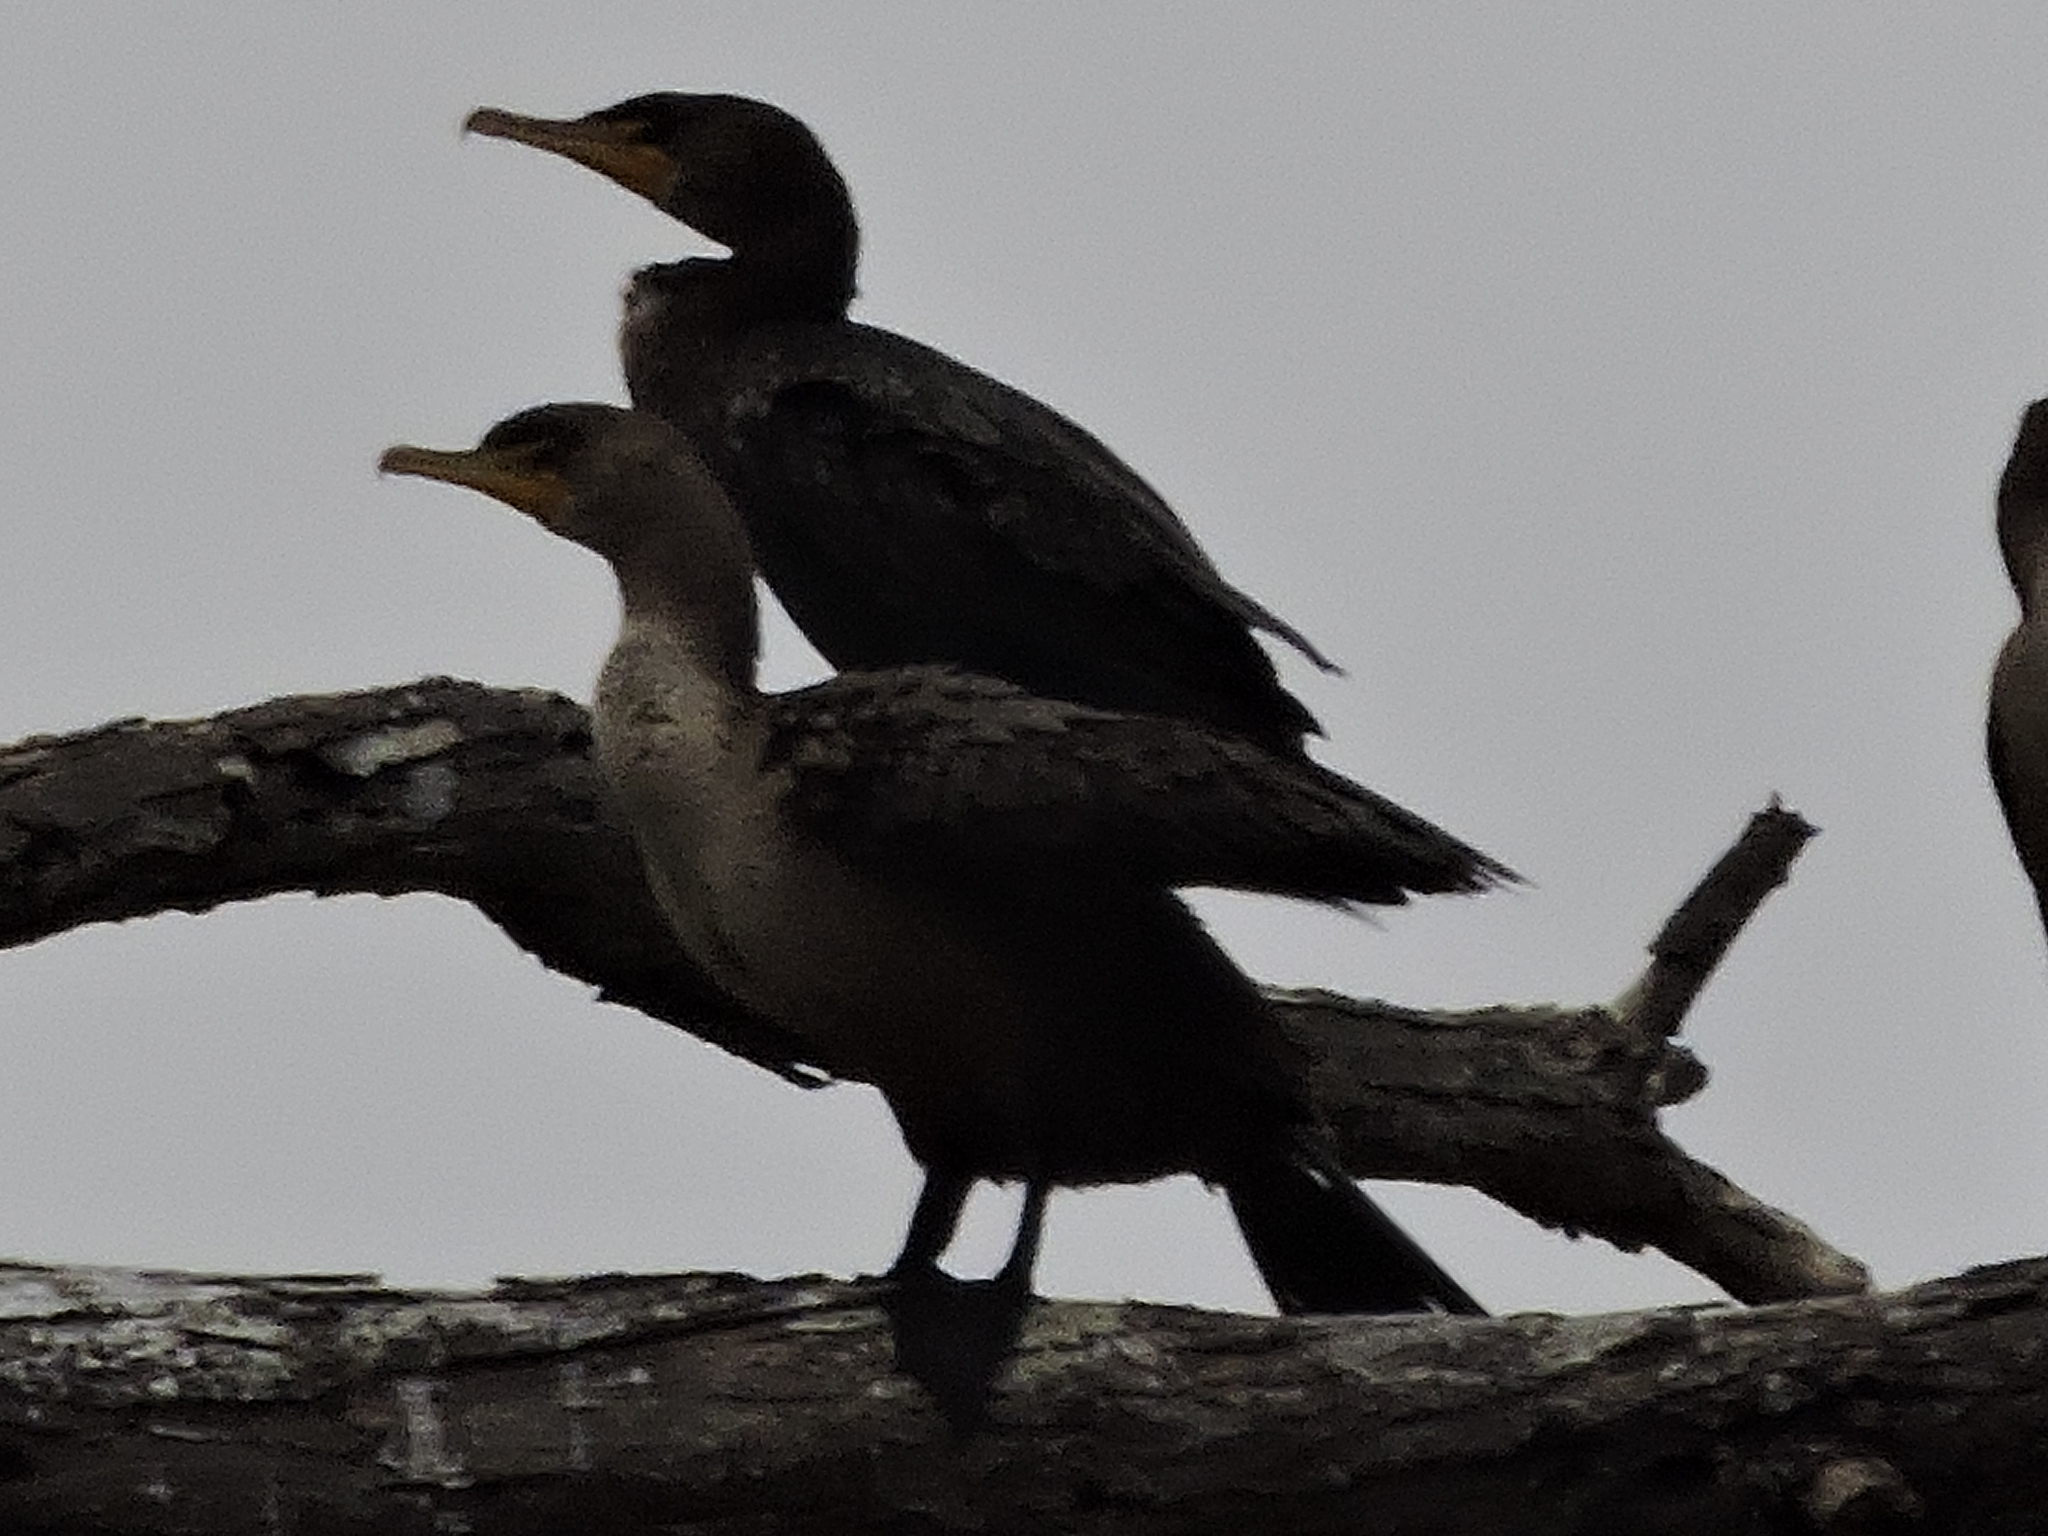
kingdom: Animalia
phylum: Chordata
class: Aves
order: Suliformes
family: Phalacrocoracidae
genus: Phalacrocorax
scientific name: Phalacrocorax auritus
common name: Double-crested cormorant
